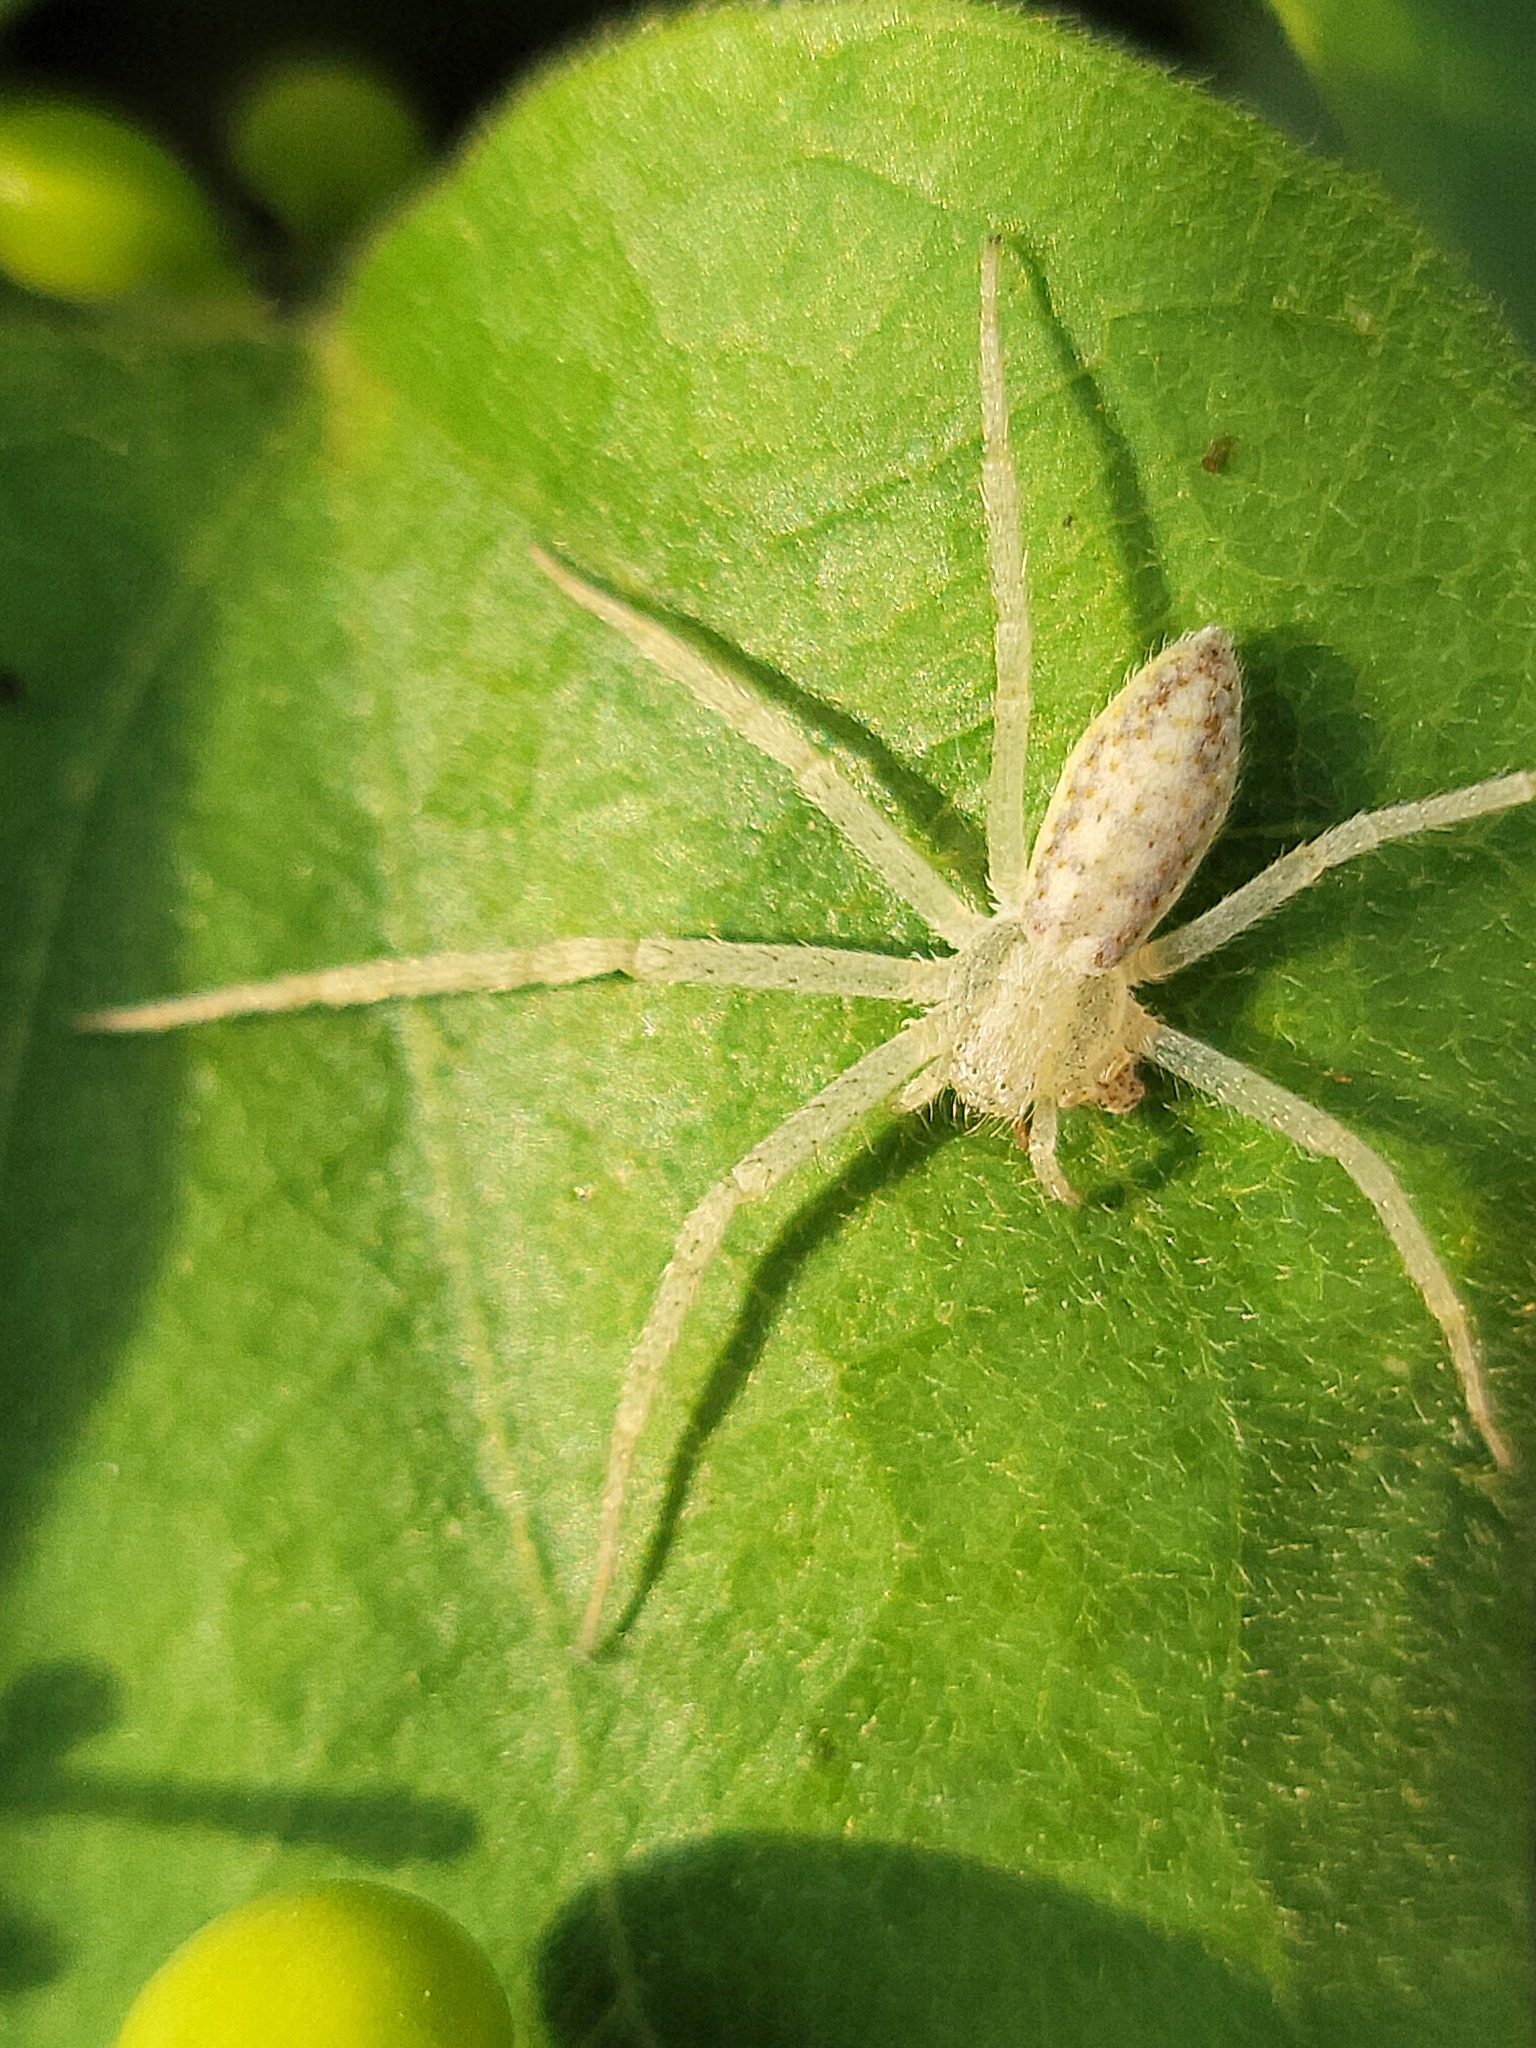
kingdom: Animalia
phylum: Arthropoda
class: Arachnida
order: Araneae
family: Philodromidae
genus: Apollophanes
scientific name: Apollophanes punctipes
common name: Running crab spiders
